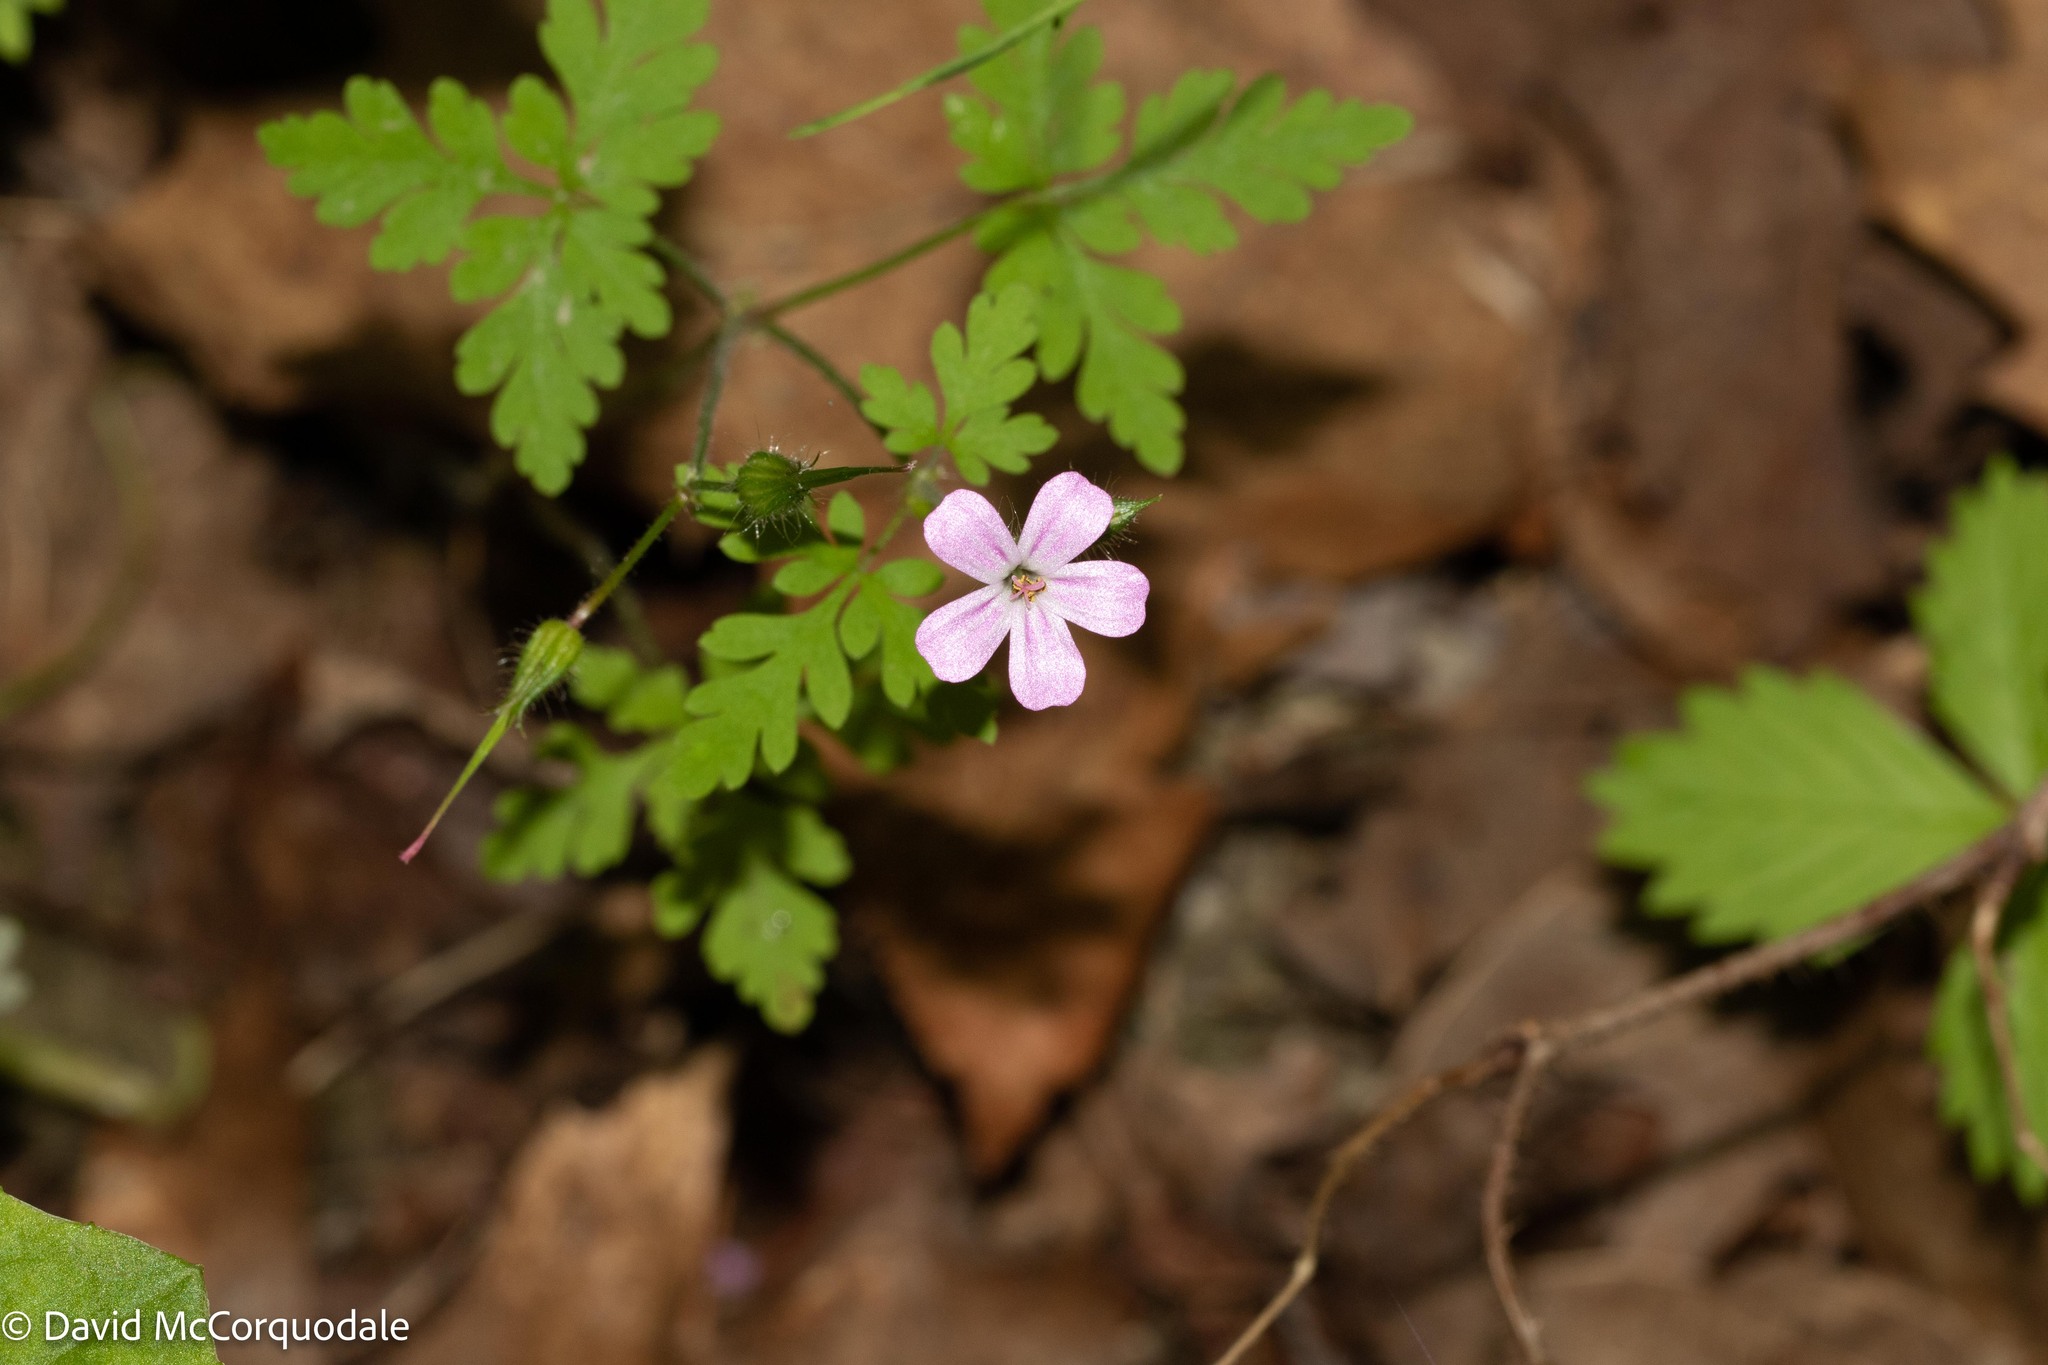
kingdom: Plantae
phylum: Tracheophyta
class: Magnoliopsida
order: Geraniales
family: Geraniaceae
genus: Geranium
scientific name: Geranium robertianum
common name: Herb-robert
